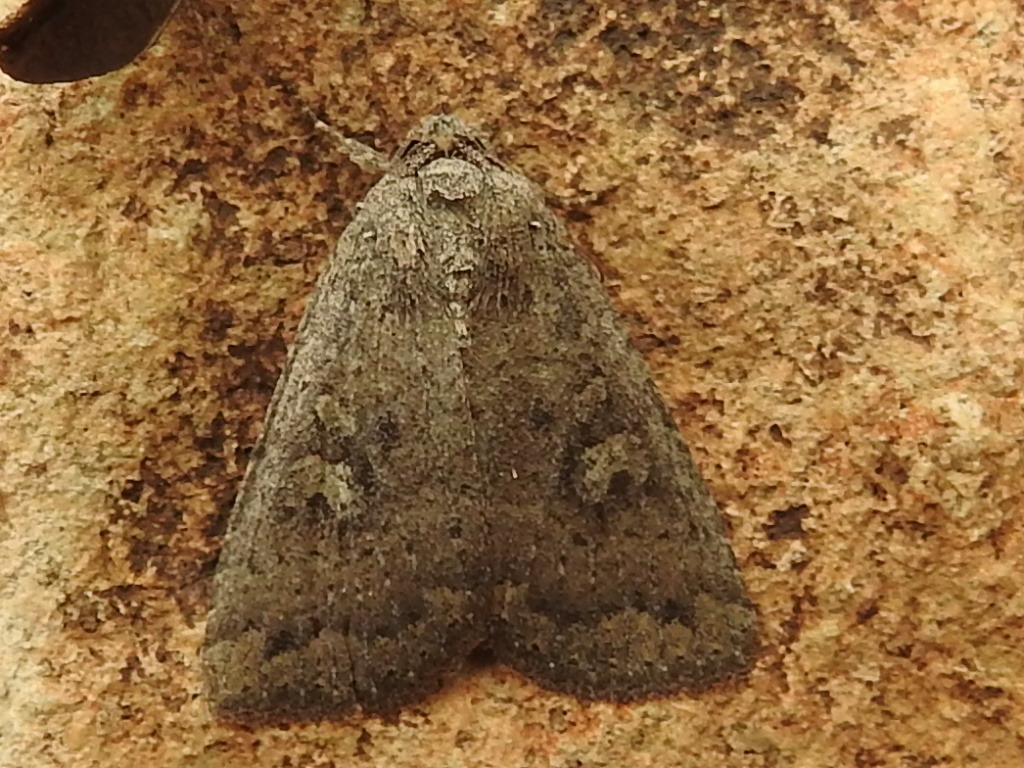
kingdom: Animalia
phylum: Arthropoda
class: Insecta
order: Lepidoptera
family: Noctuidae
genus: Condica
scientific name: Condica sutor
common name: Cobbler moth
